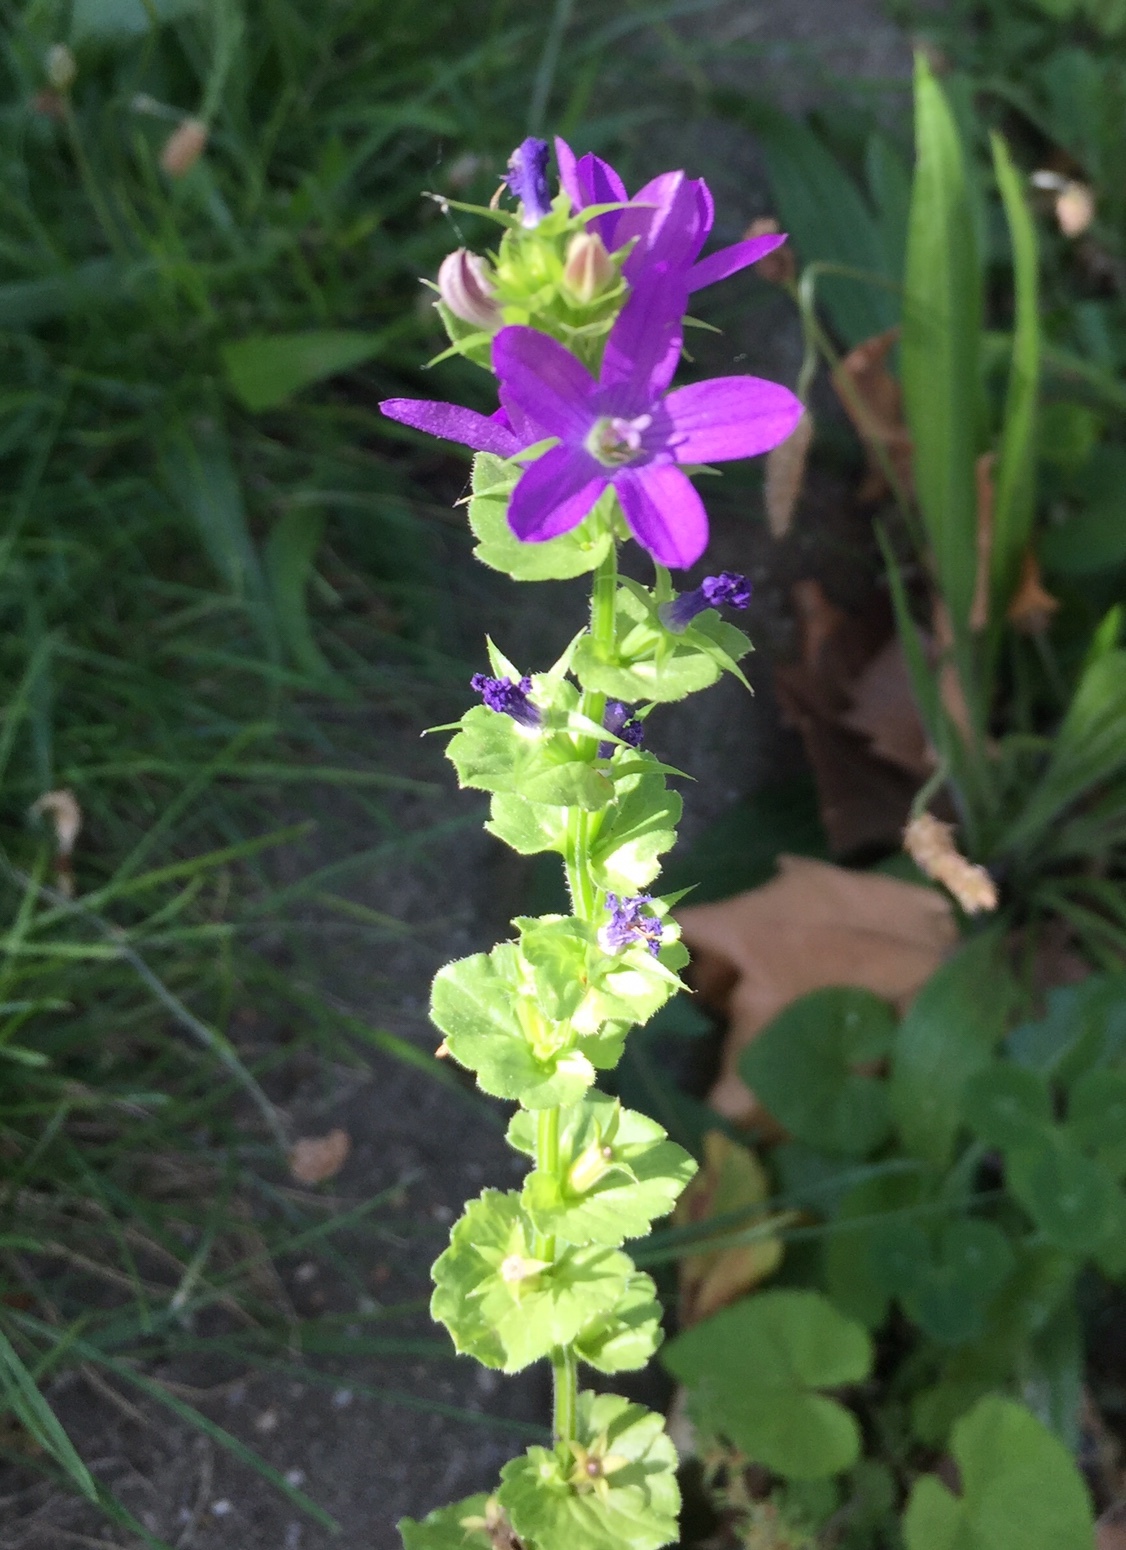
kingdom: Plantae
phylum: Tracheophyta
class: Magnoliopsida
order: Asterales
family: Campanulaceae
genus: Triodanis
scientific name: Triodanis perfoliata
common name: Clasping venus' looking-glass
